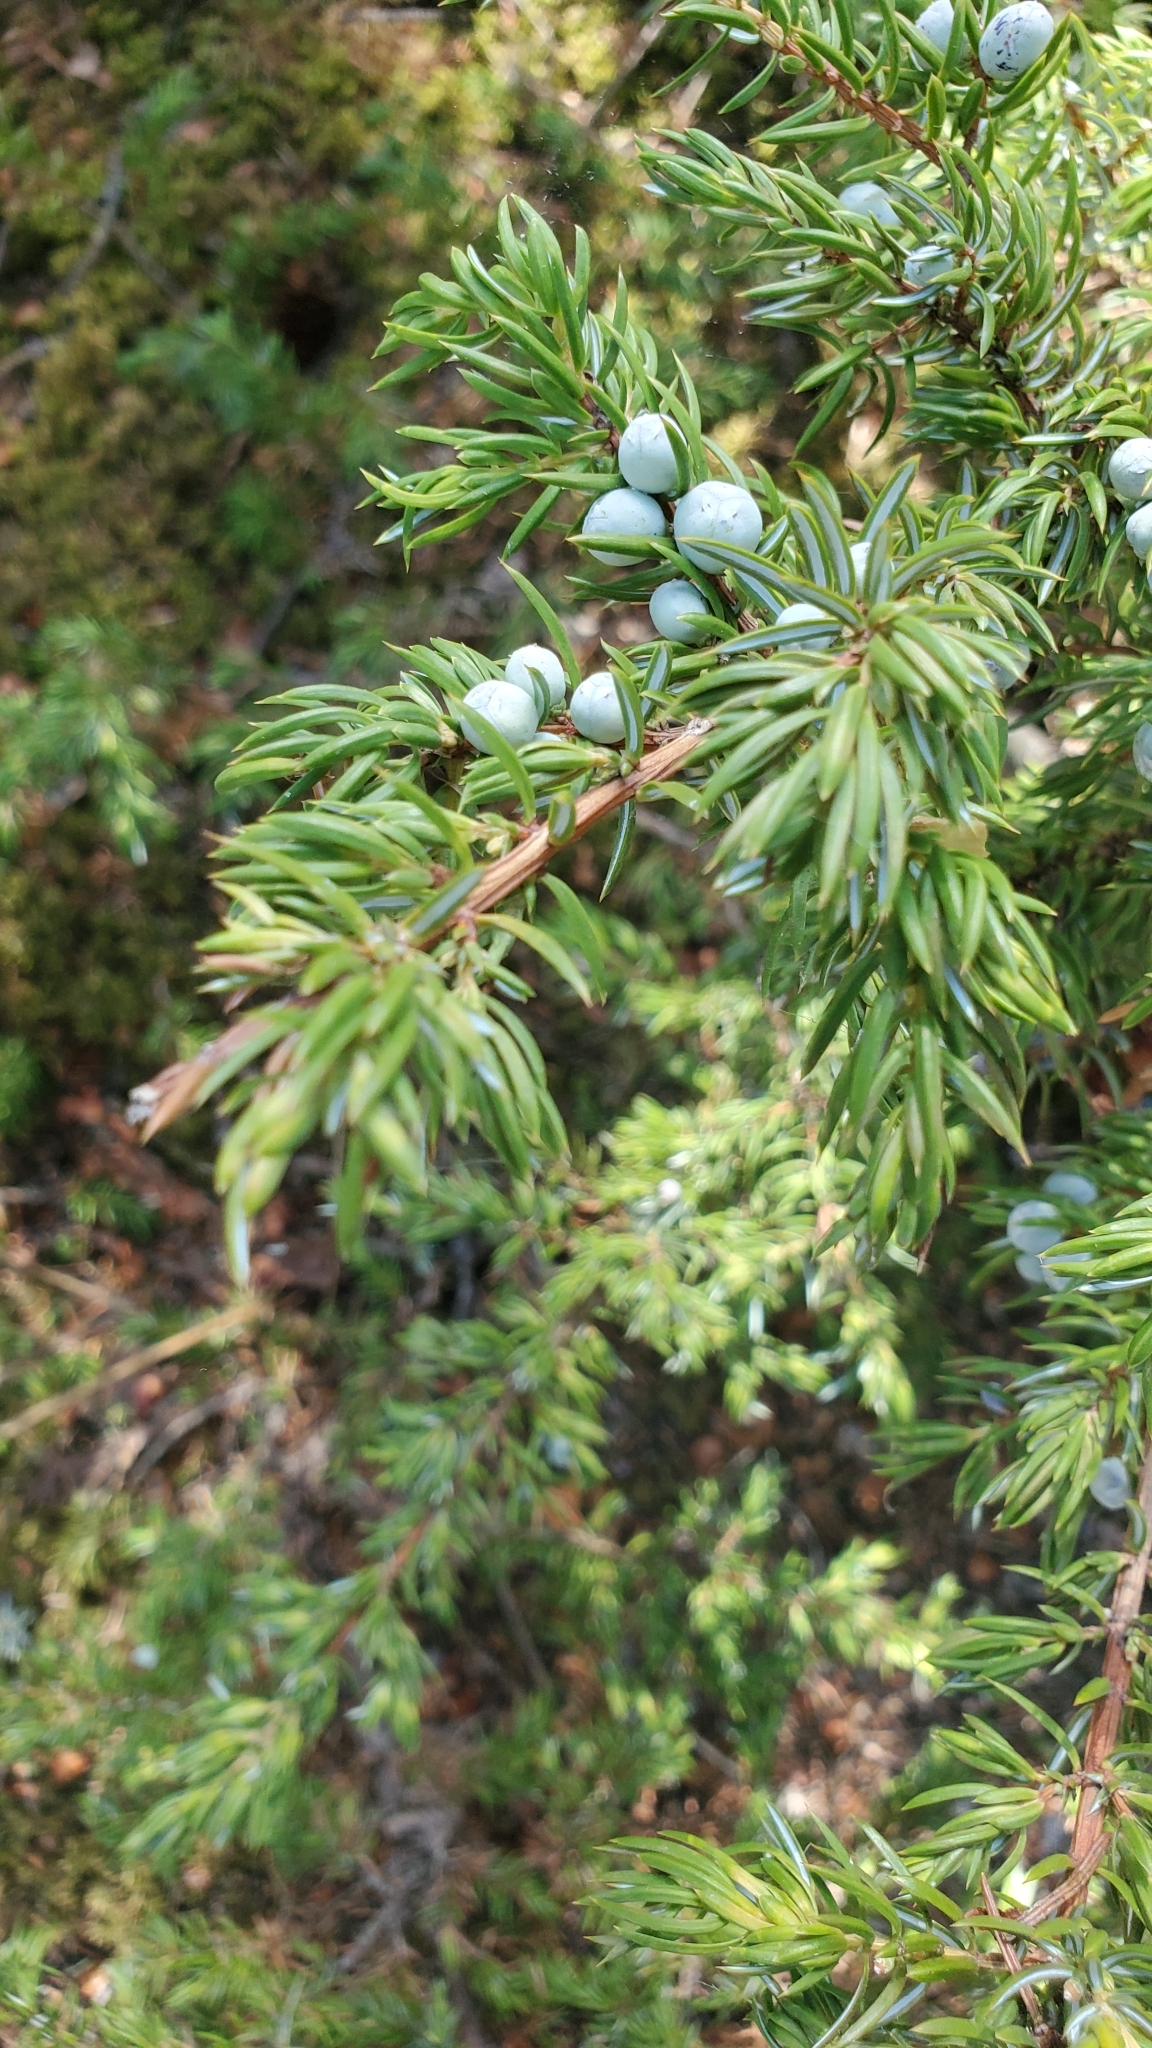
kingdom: Plantae
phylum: Tracheophyta
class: Pinopsida
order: Pinales
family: Cupressaceae
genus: Juniperus
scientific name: Juniperus communis
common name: Common juniper
